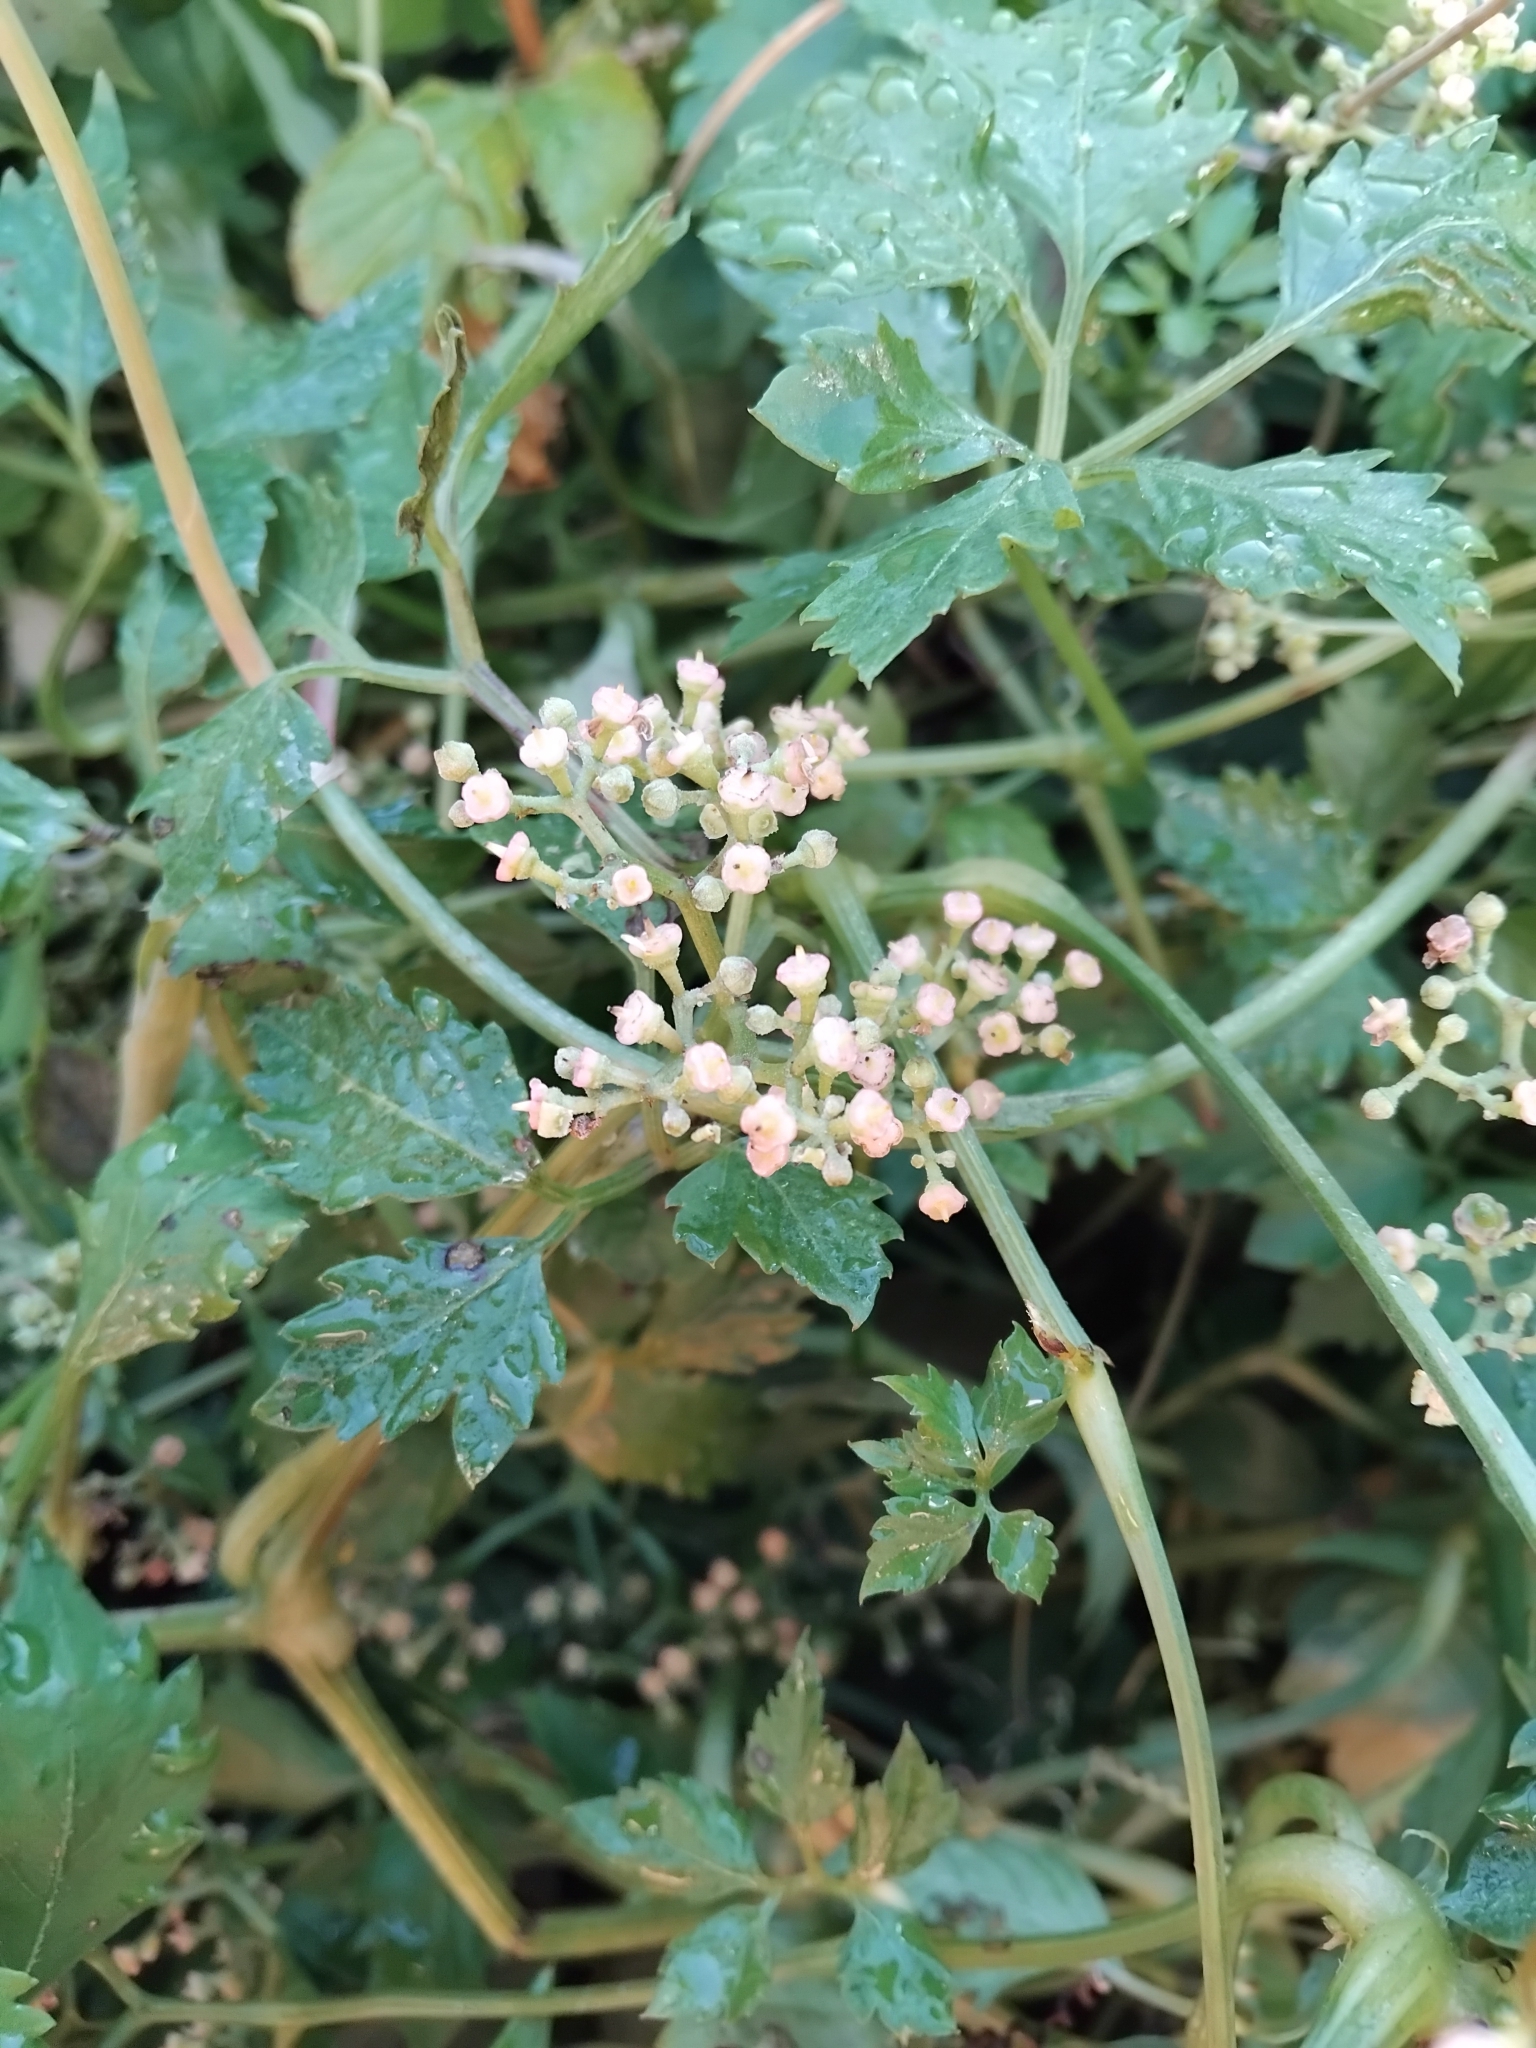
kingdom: Plantae
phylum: Tracheophyta
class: Magnoliopsida
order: Vitales
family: Vitaceae
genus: Causonis
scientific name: Causonis clematidea
